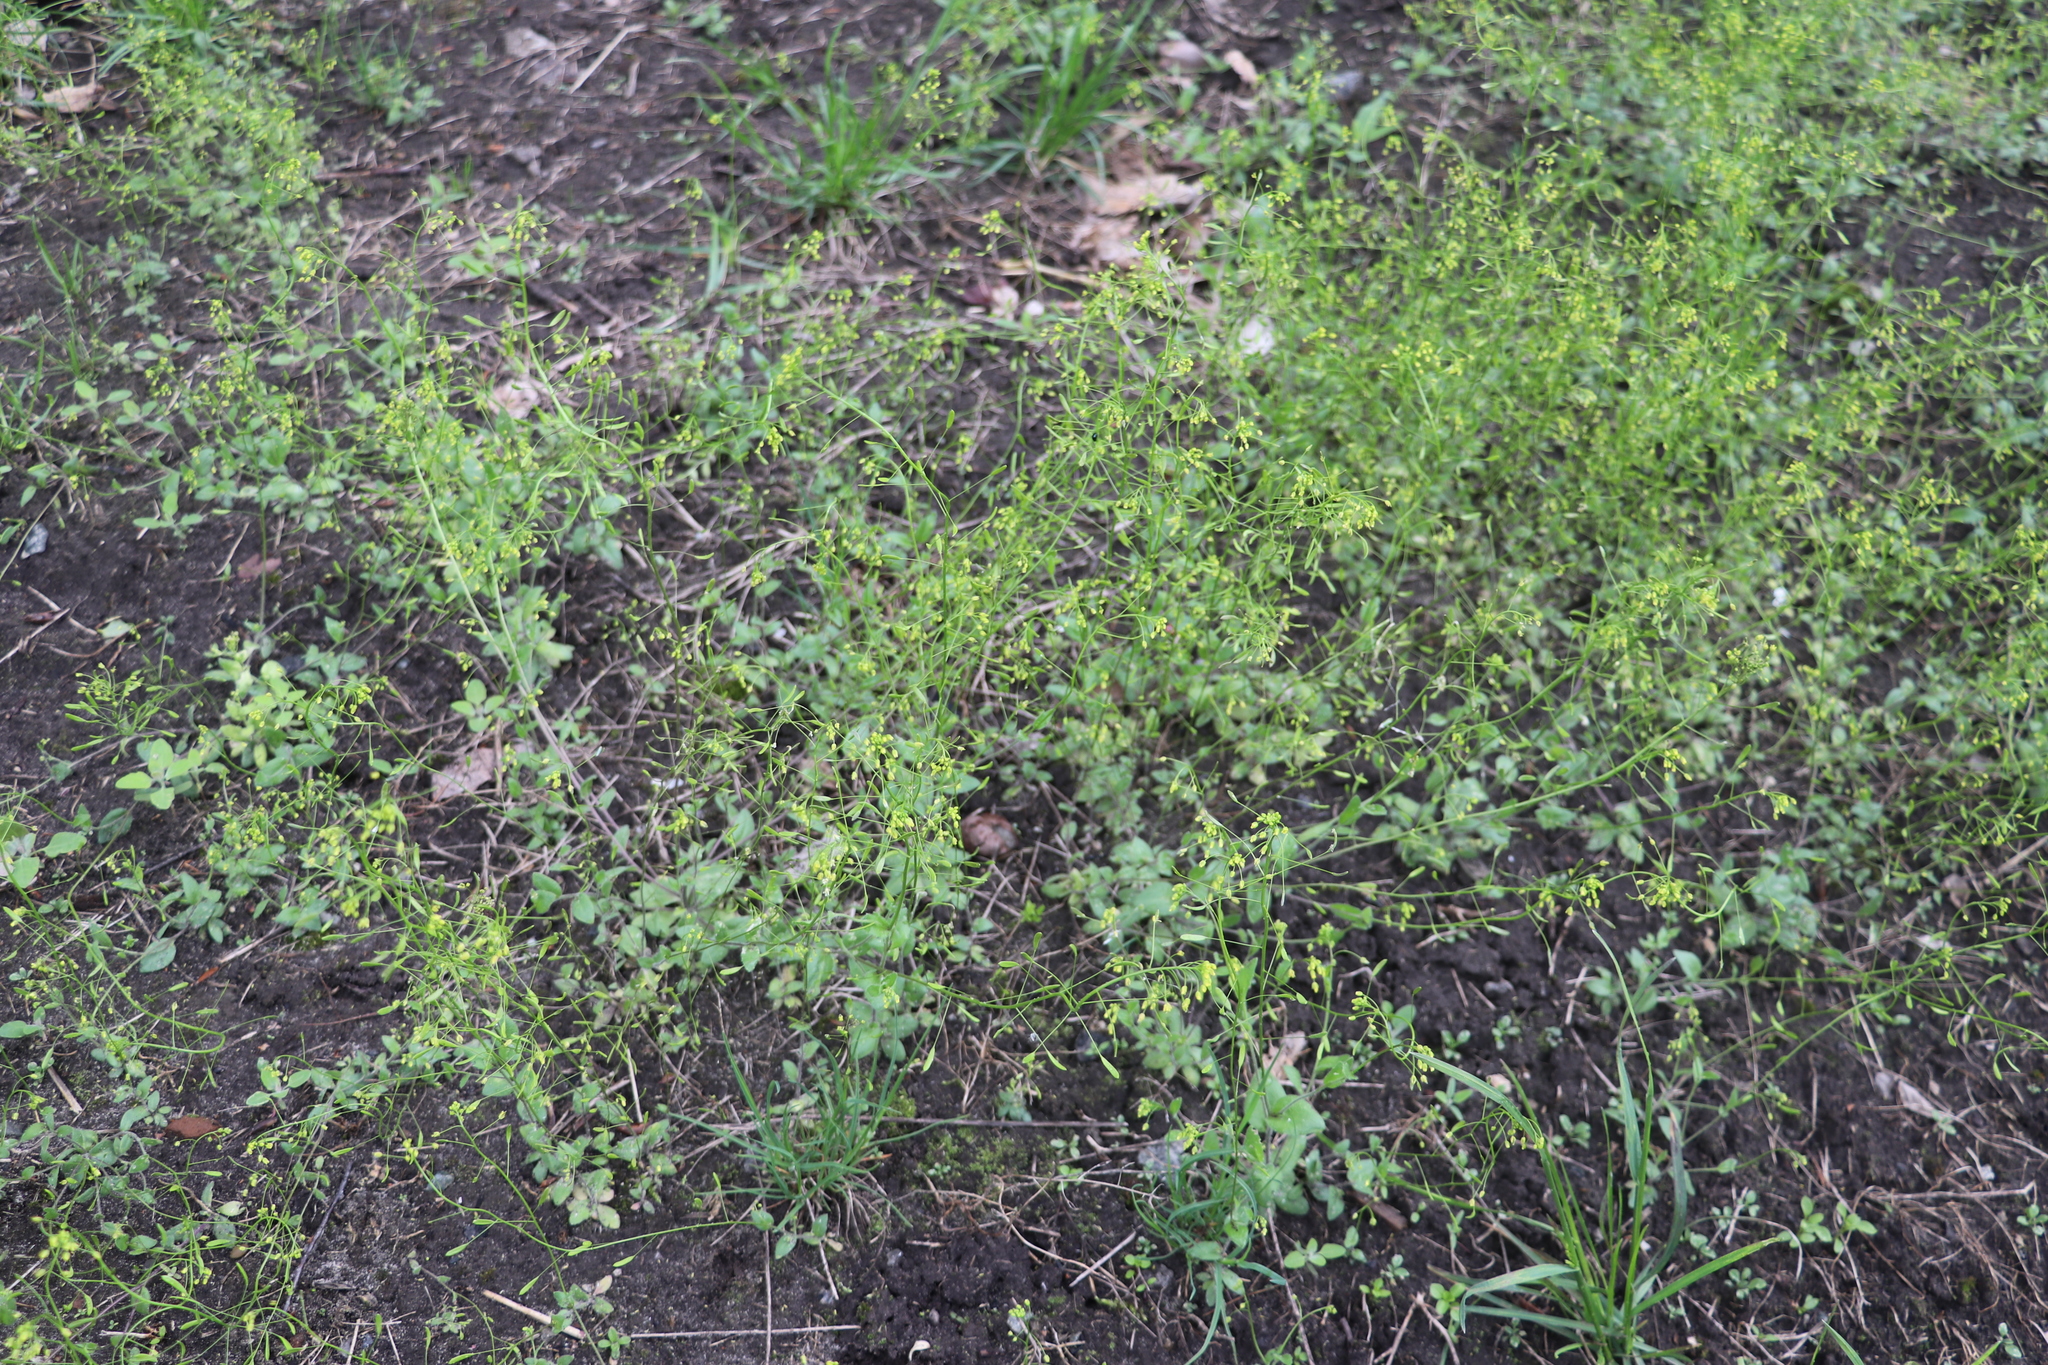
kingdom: Plantae
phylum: Tracheophyta
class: Magnoliopsida
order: Brassicales
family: Brassicaceae
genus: Draba
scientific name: Draba nemorosa
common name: Wood whitlow-grass
